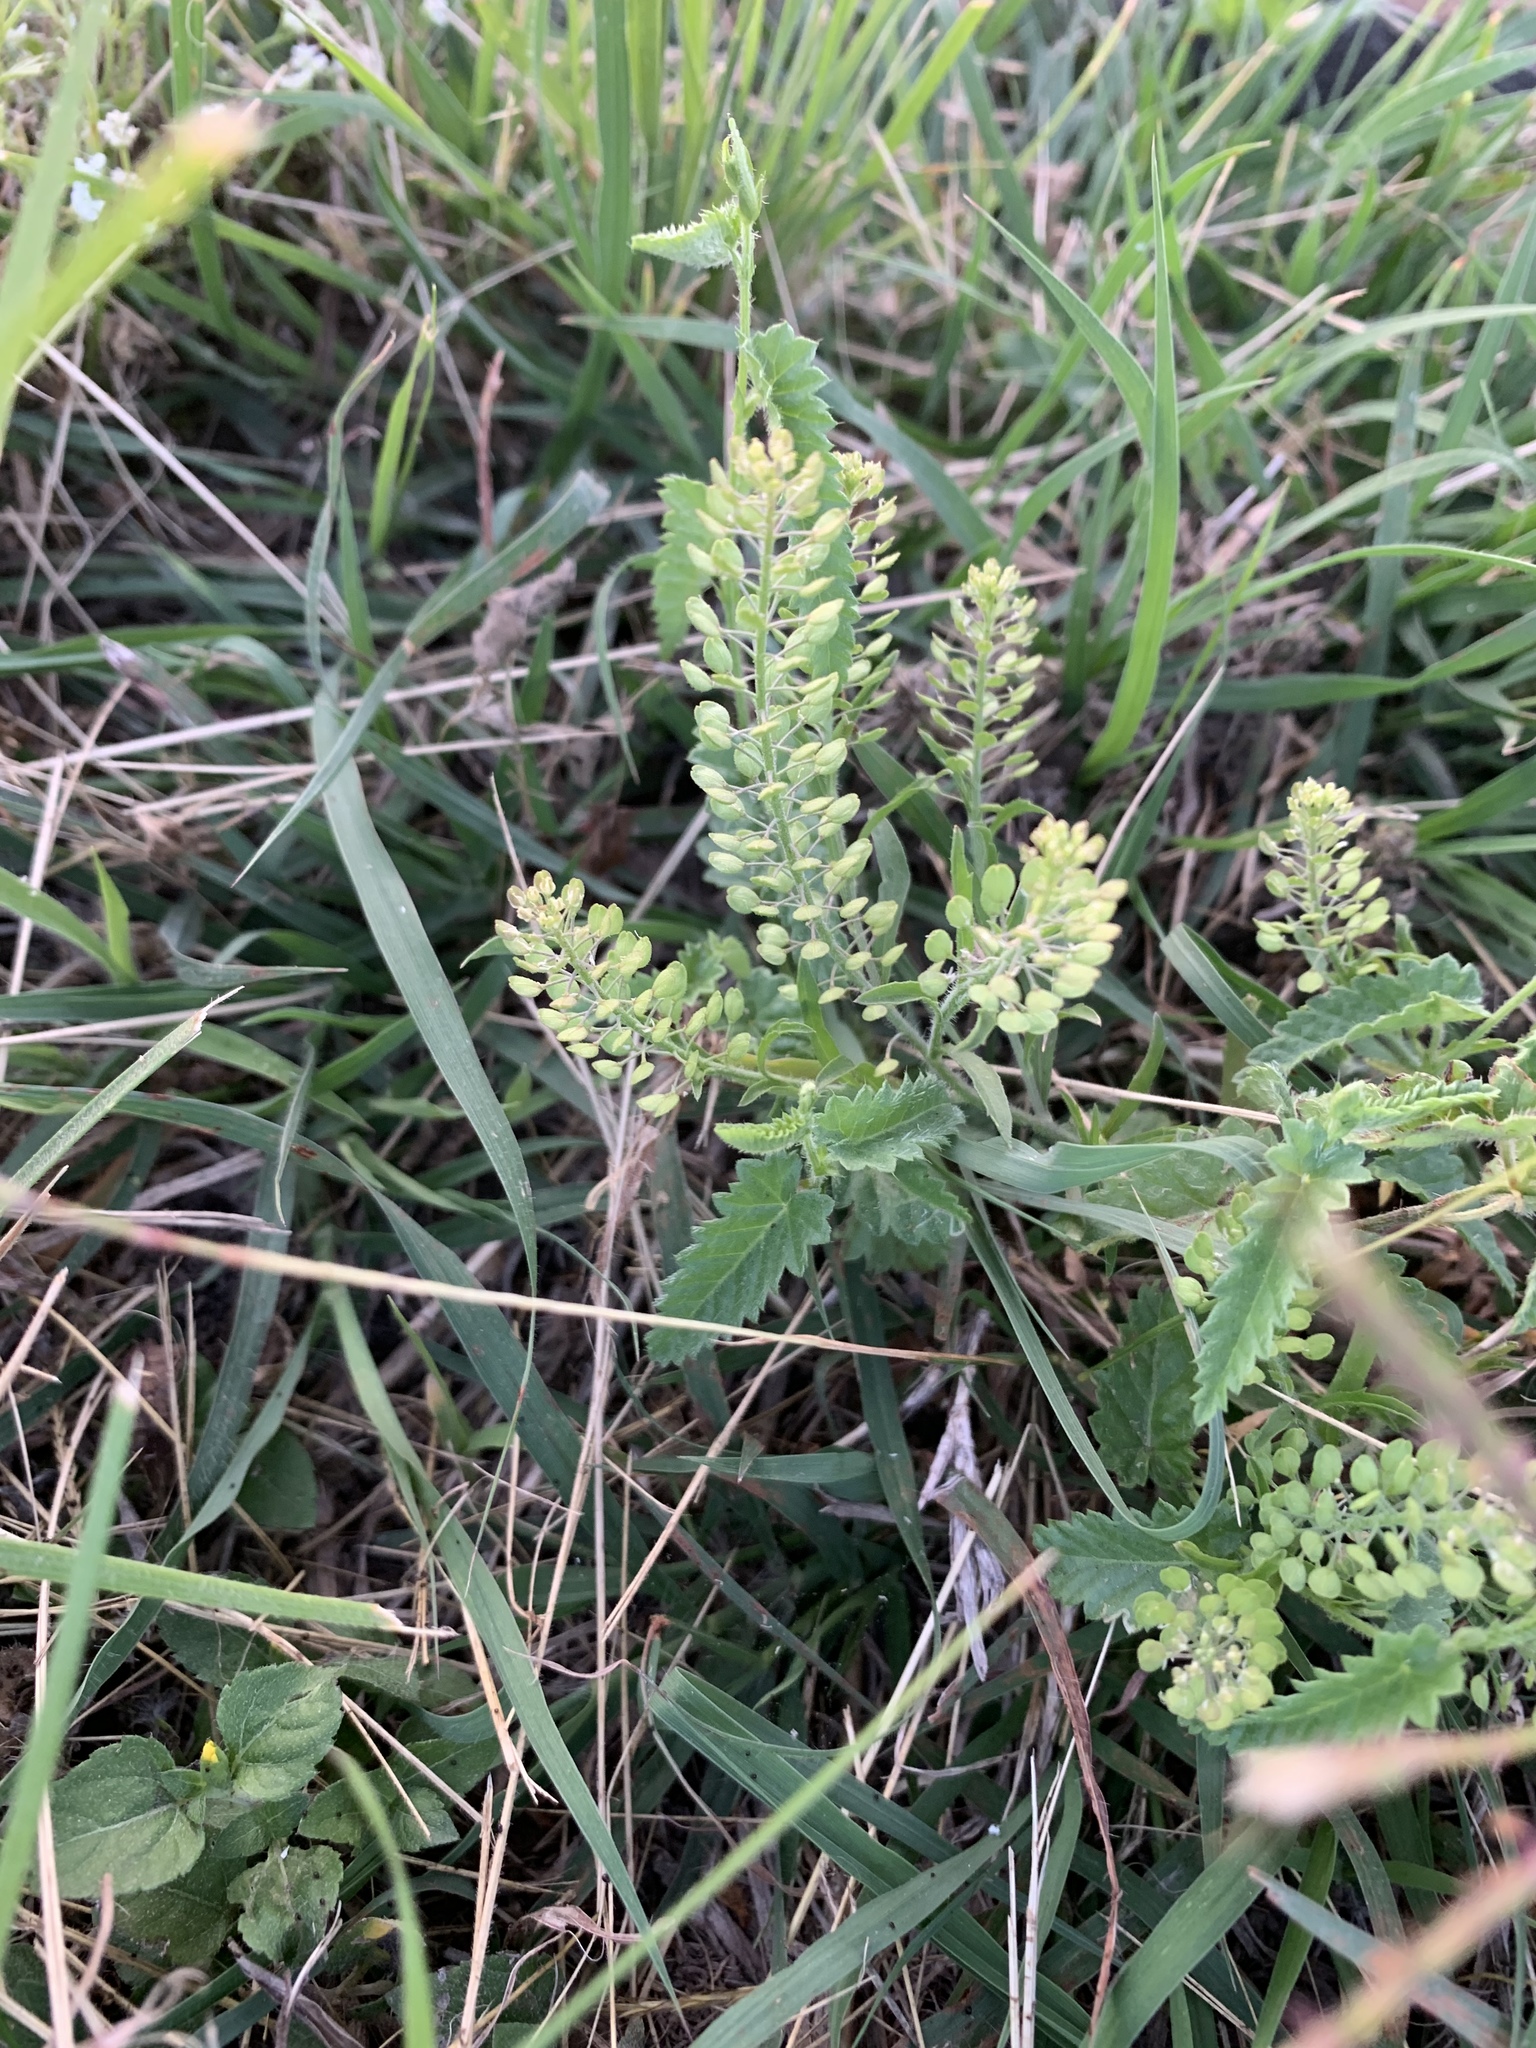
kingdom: Plantae
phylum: Tracheophyta
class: Magnoliopsida
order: Brassicales
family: Brassicaceae
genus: Lepidium
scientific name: Lepidium virginicum
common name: Least pepperwort
